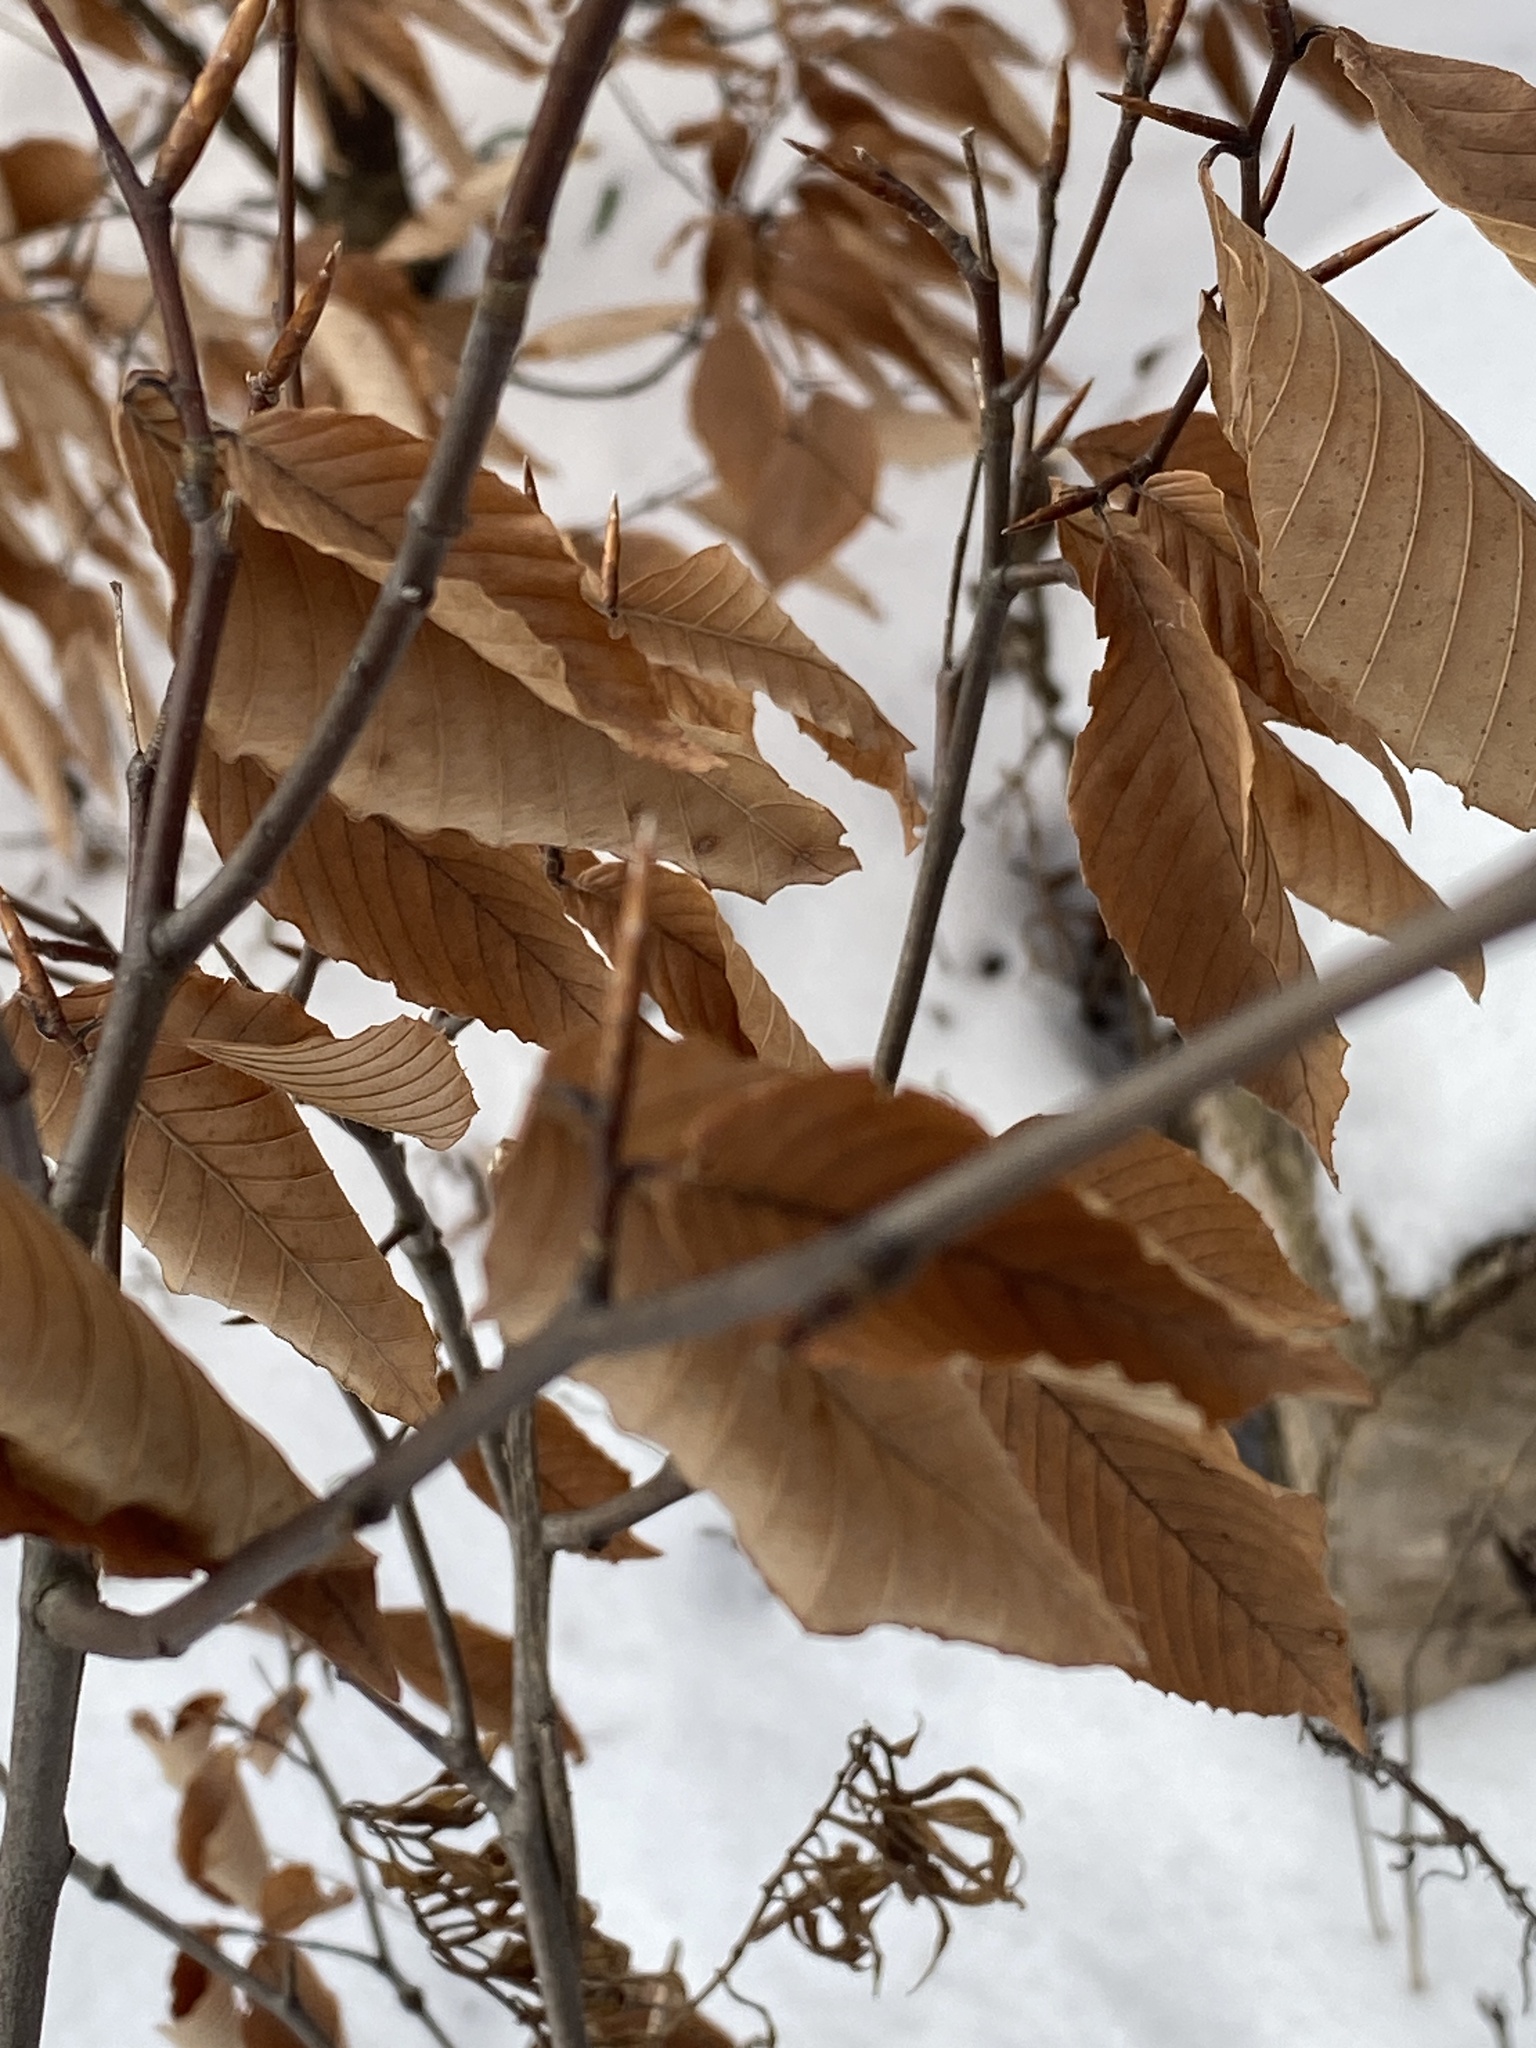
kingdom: Plantae
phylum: Tracheophyta
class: Magnoliopsida
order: Fagales
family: Fagaceae
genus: Fagus
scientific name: Fagus grandifolia
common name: American beech
